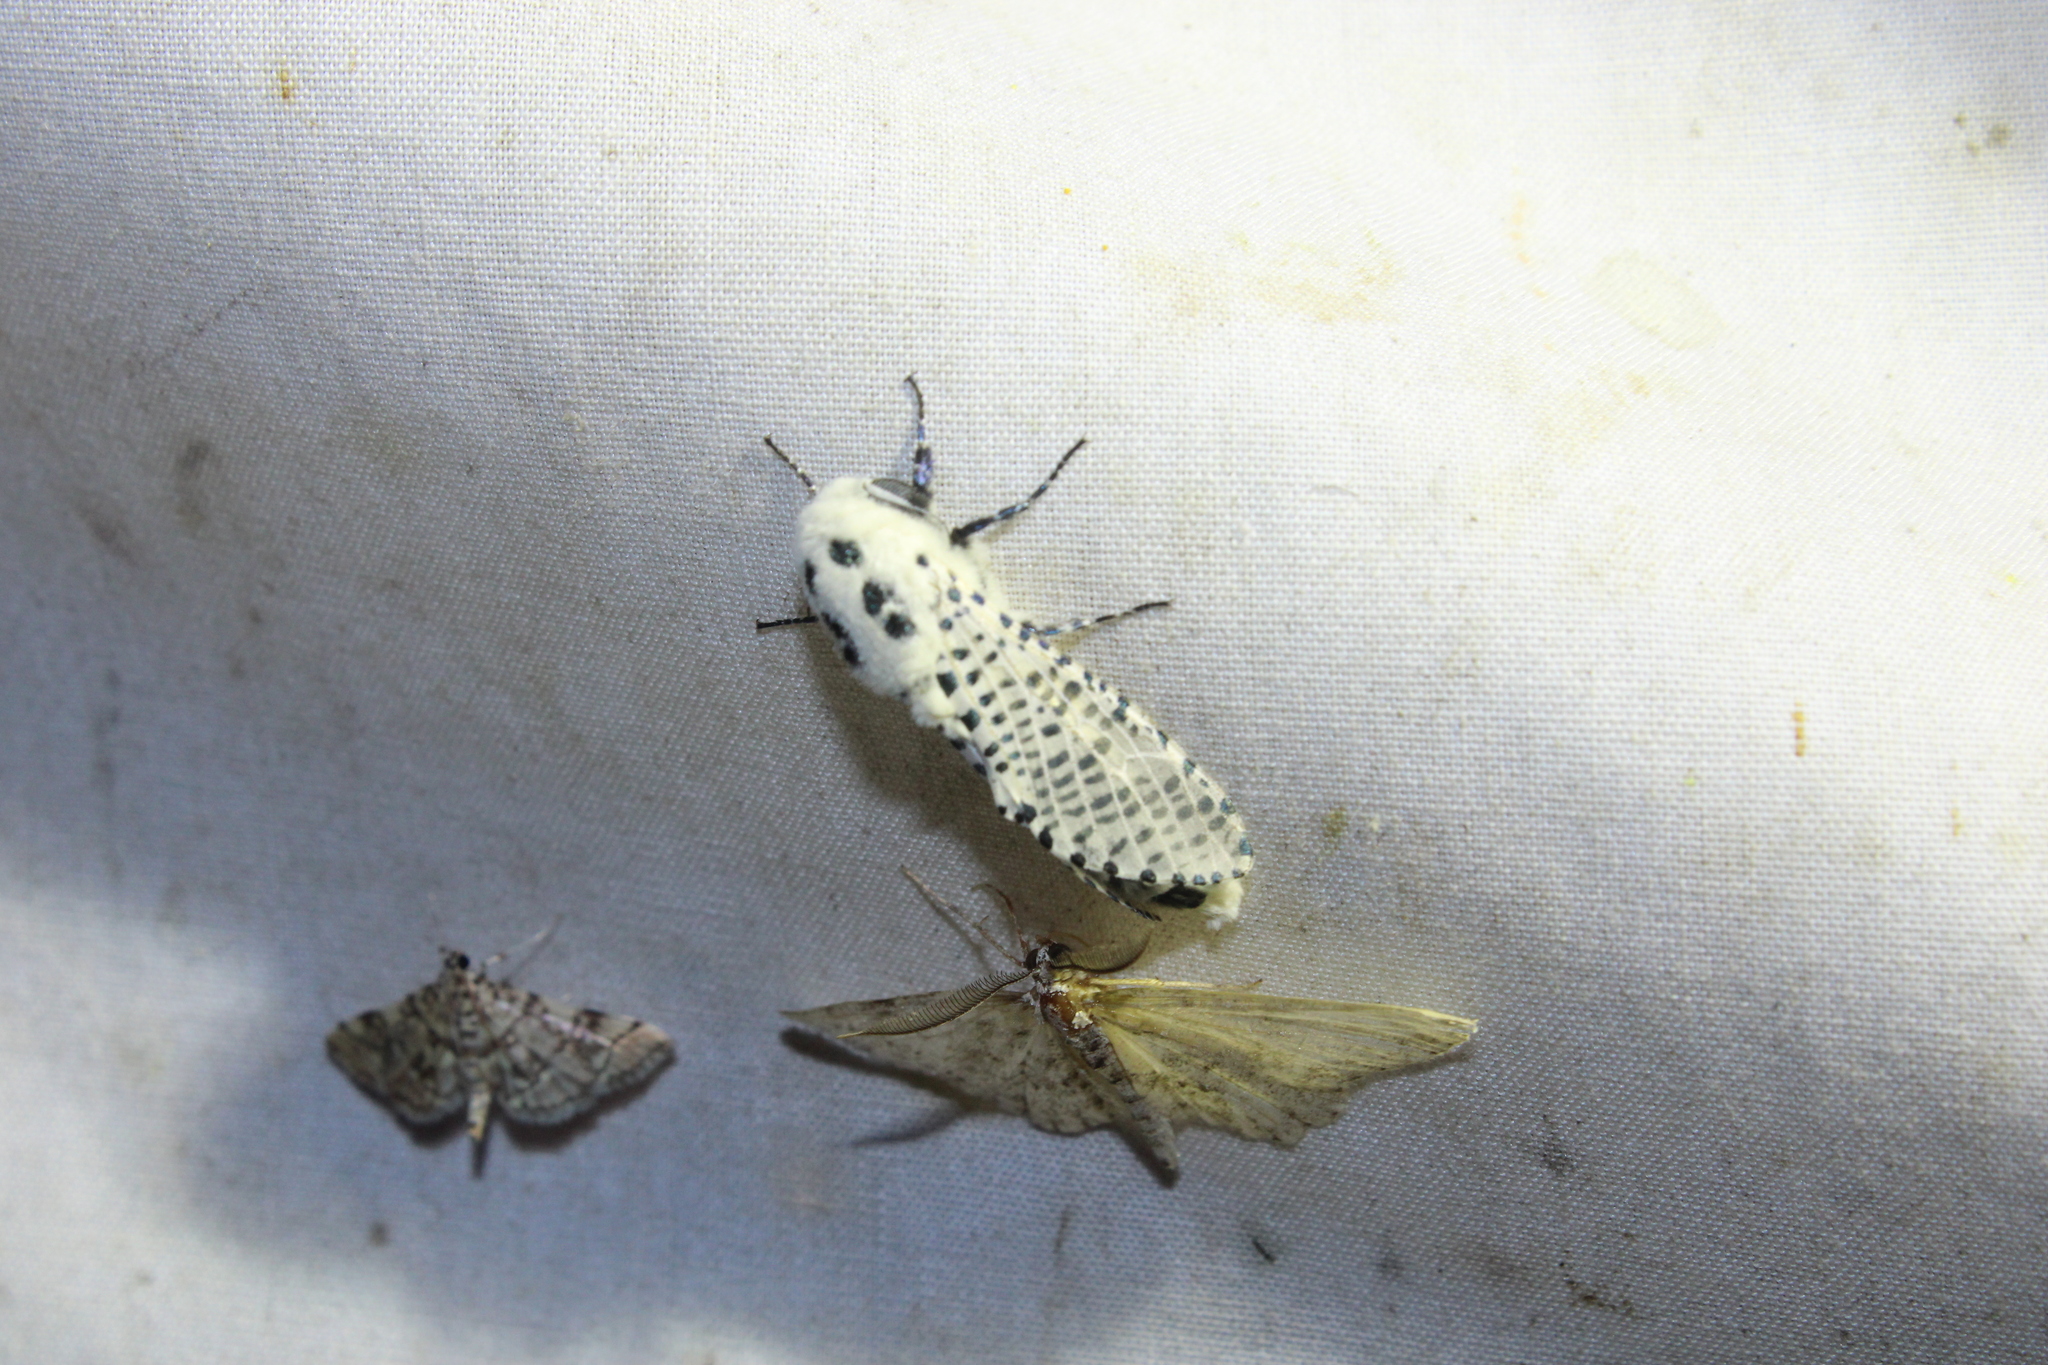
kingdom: Animalia
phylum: Arthropoda
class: Insecta
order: Lepidoptera
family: Cossidae
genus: Zeuzera
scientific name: Zeuzera pyrina
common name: Leopard moth
